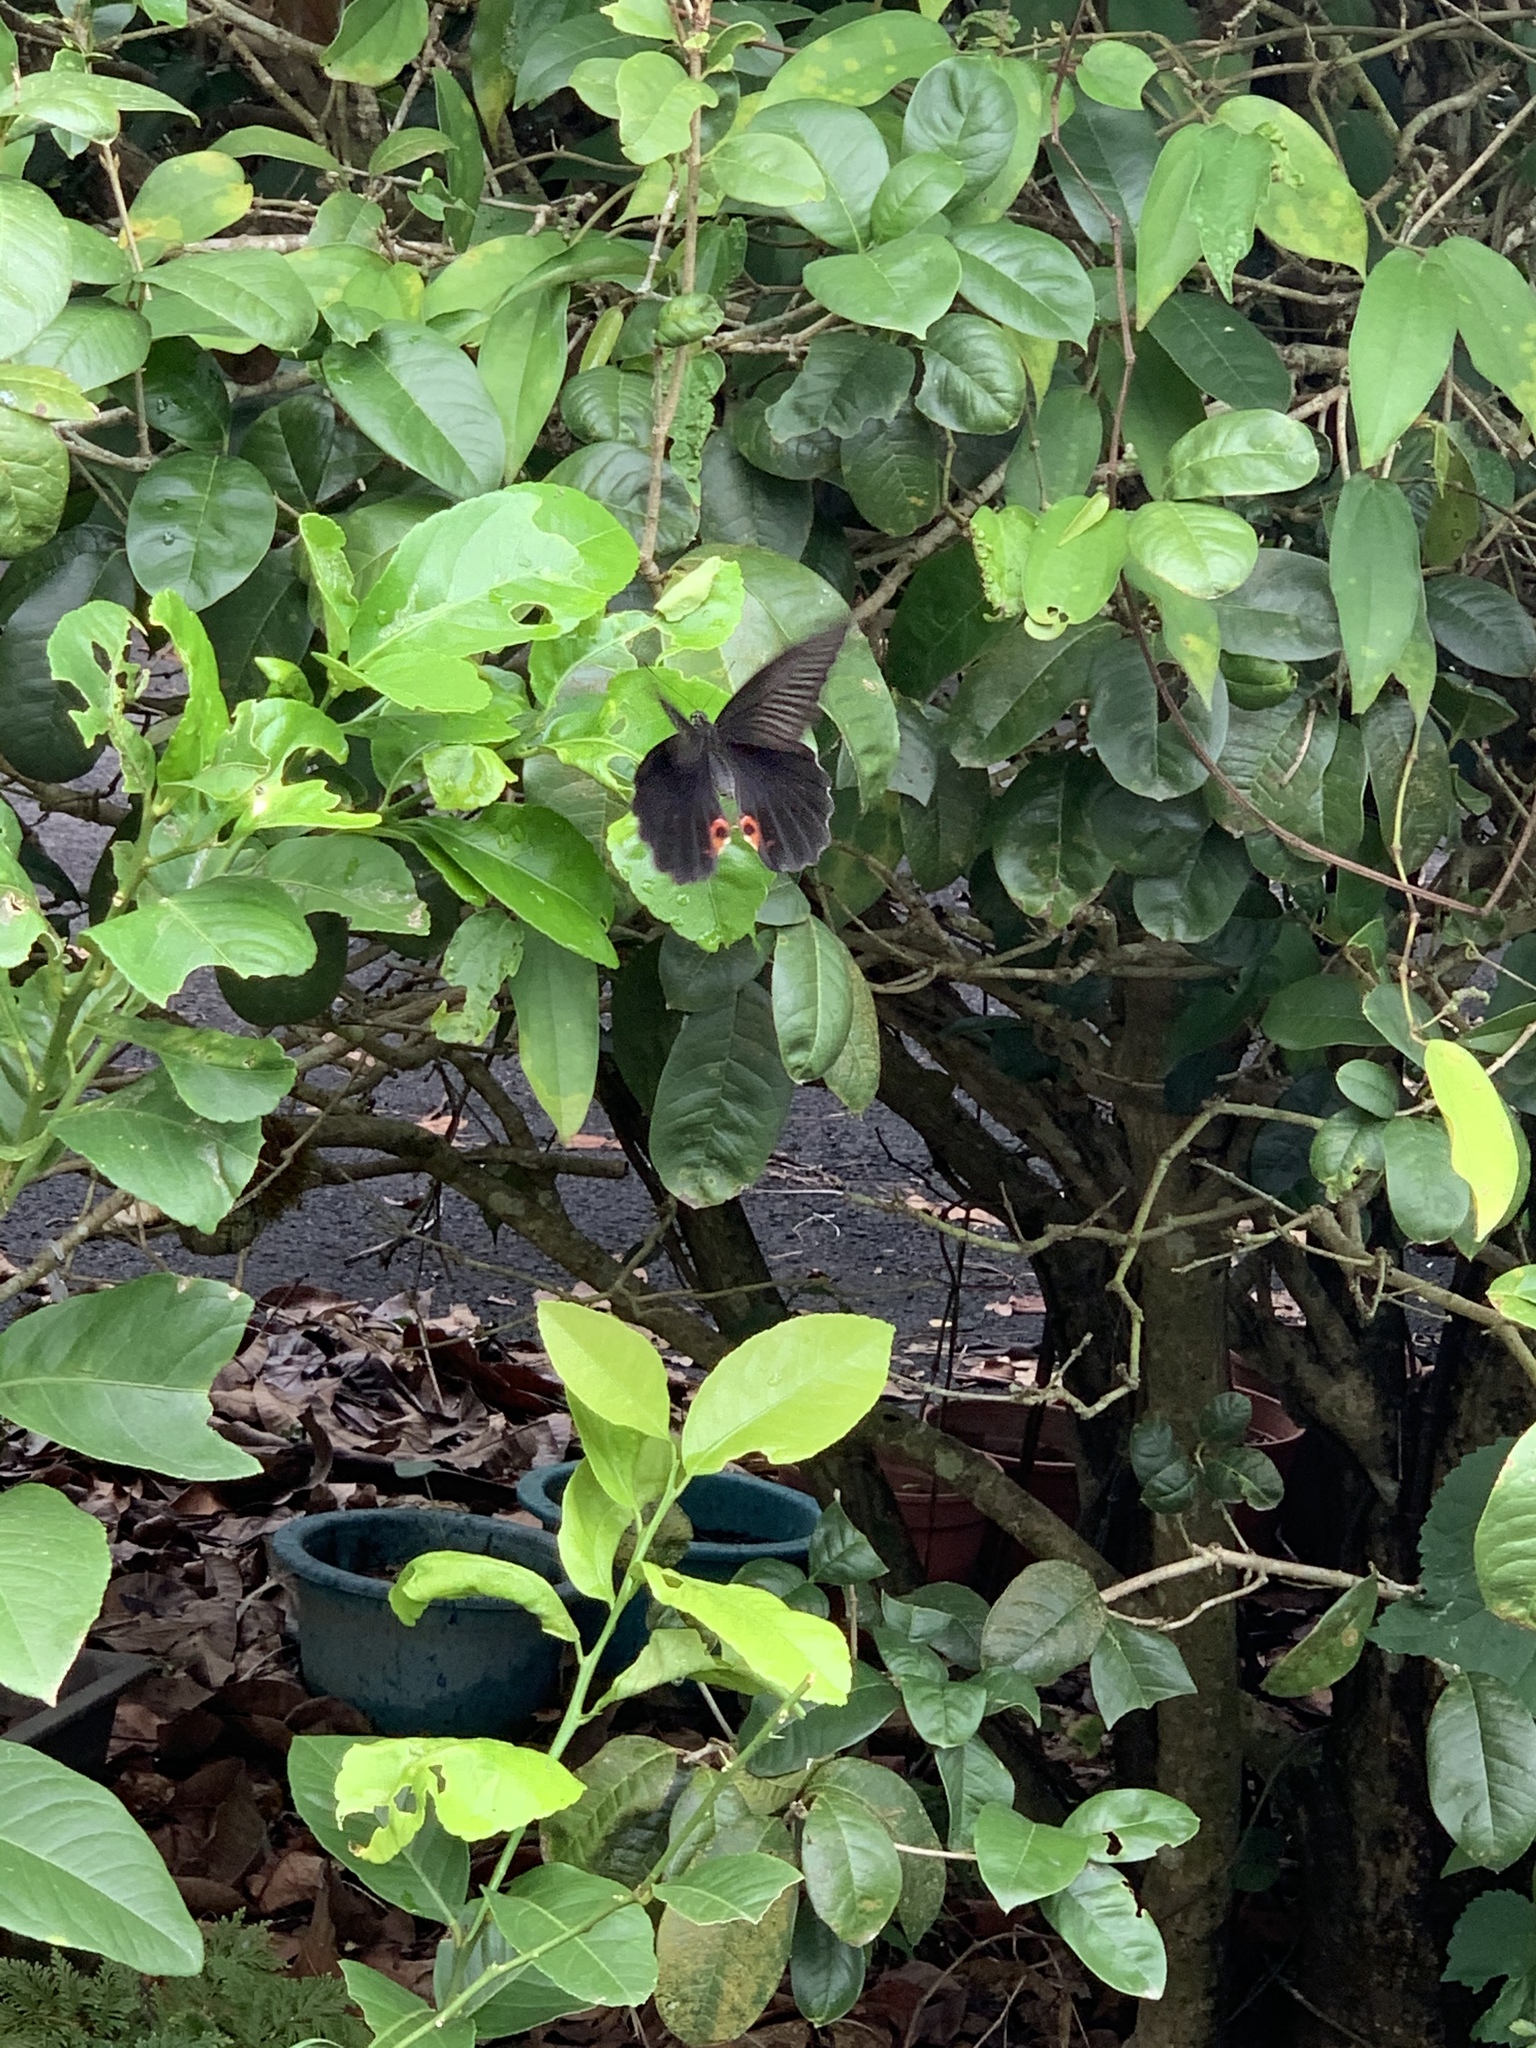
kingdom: Animalia
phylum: Arthropoda
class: Insecta
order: Lepidoptera
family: Papilionidae
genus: Papilio
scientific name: Papilio protenor
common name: Spangle
